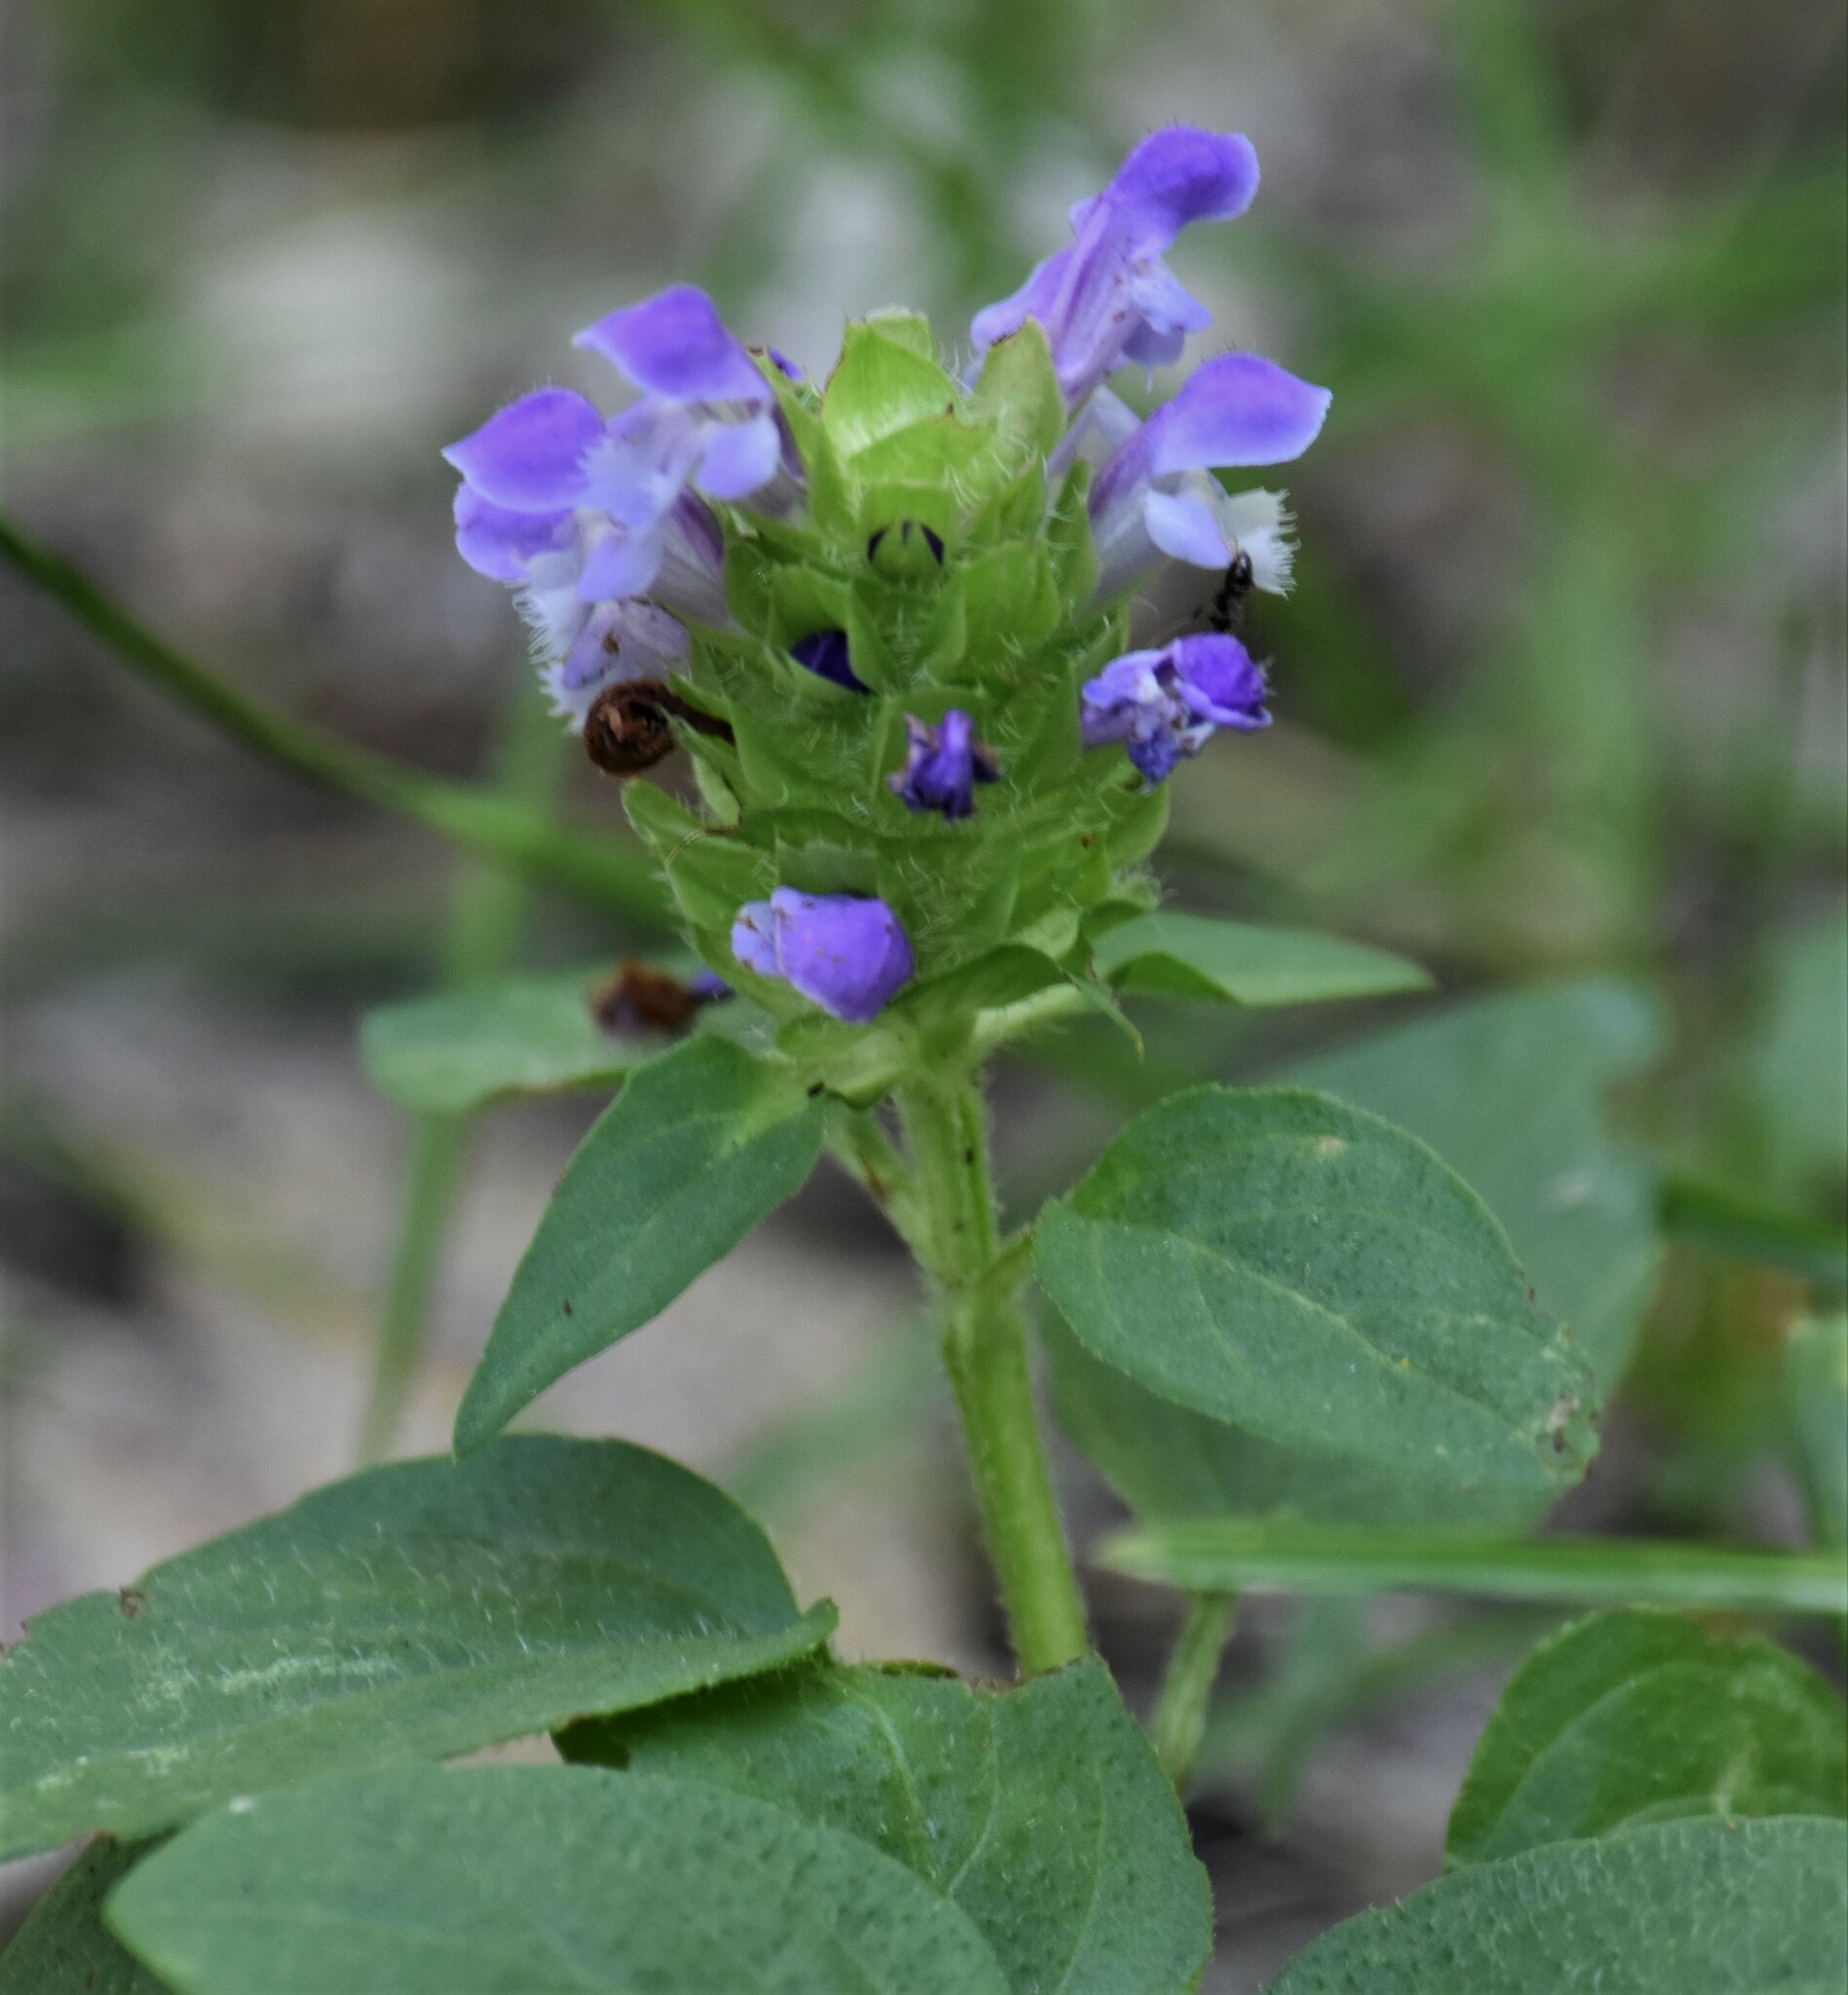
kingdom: Plantae
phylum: Tracheophyta
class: Magnoliopsida
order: Lamiales
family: Lamiaceae
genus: Prunella
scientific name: Prunella vulgaris
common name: Heal-all
